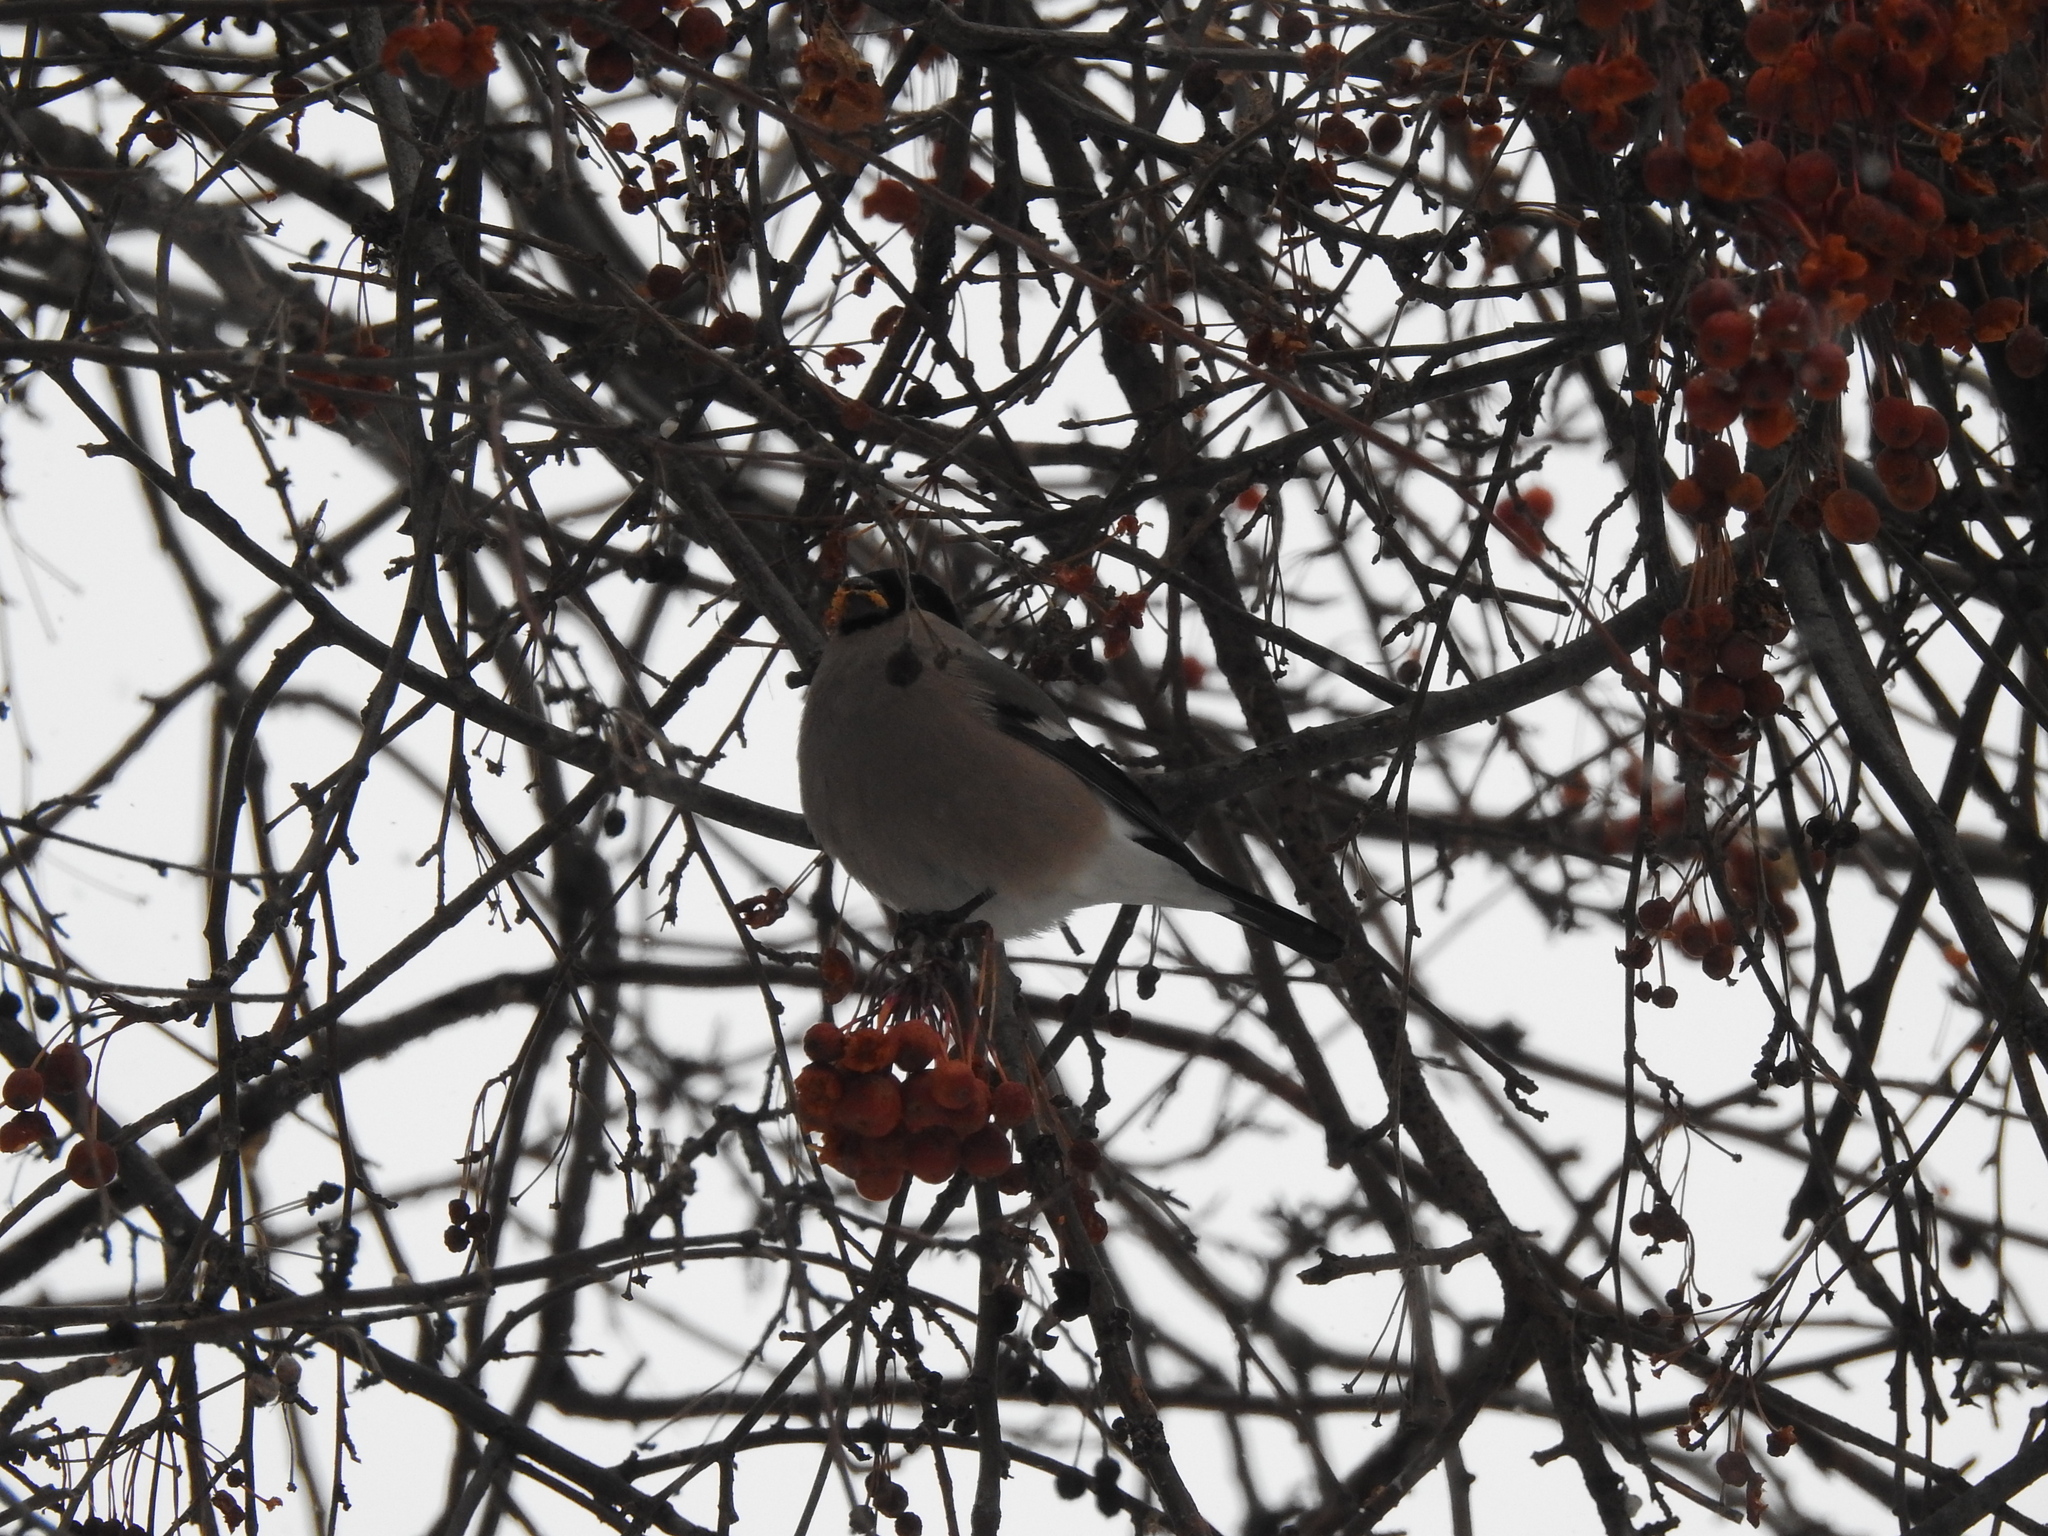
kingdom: Animalia
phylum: Chordata
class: Aves
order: Passeriformes
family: Fringillidae
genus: Pyrrhula
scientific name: Pyrrhula pyrrhula
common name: Eurasian bullfinch
